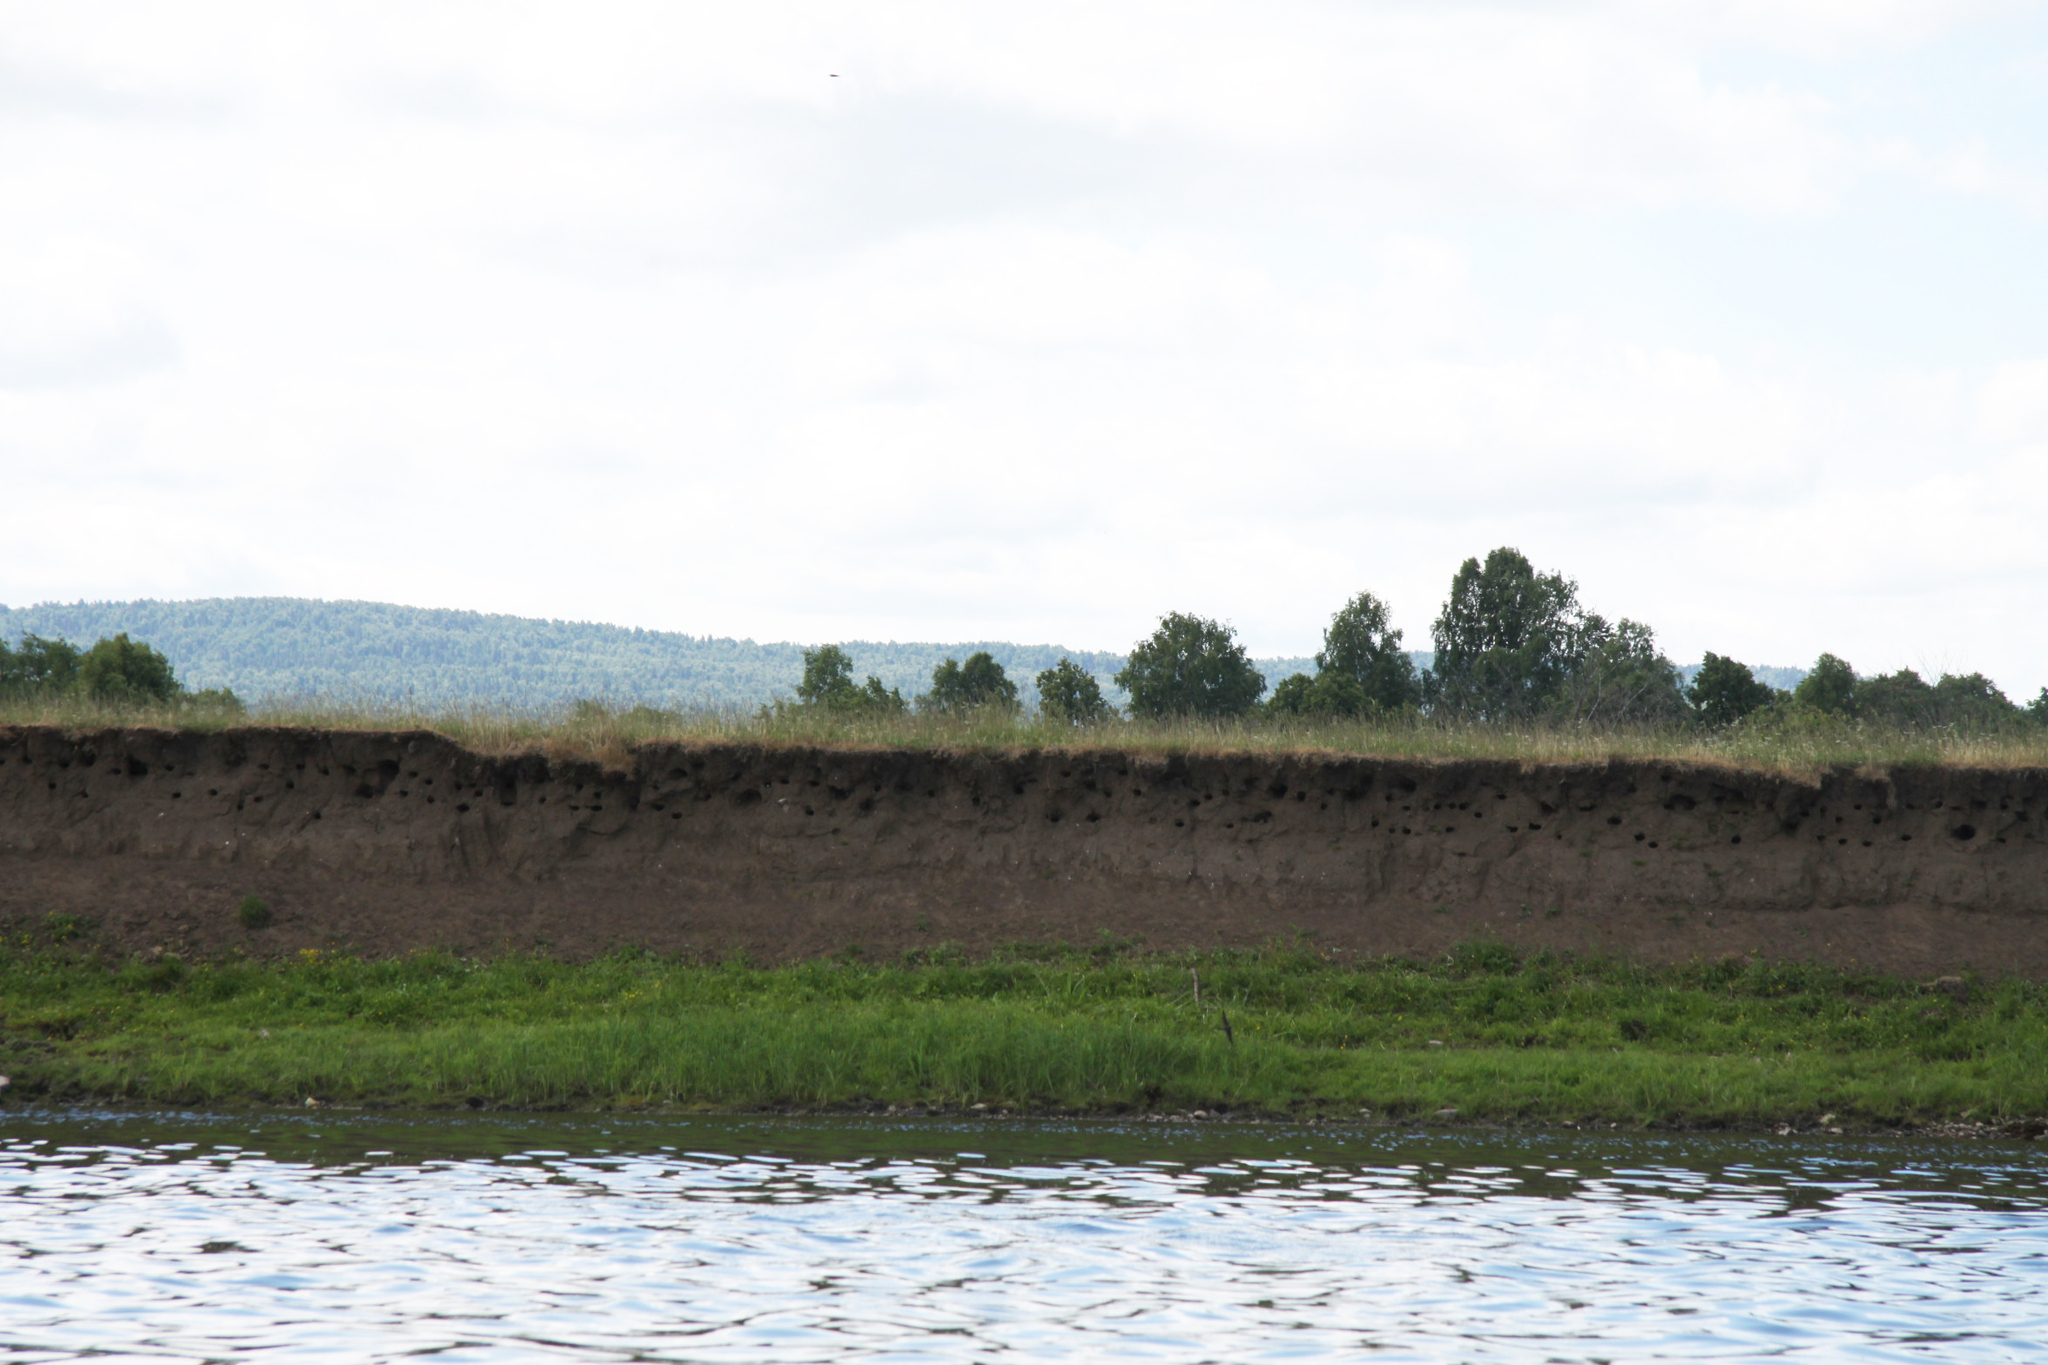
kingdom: Animalia
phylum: Chordata
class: Aves
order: Passeriformes
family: Hirundinidae
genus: Riparia
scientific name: Riparia riparia
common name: Sand martin
